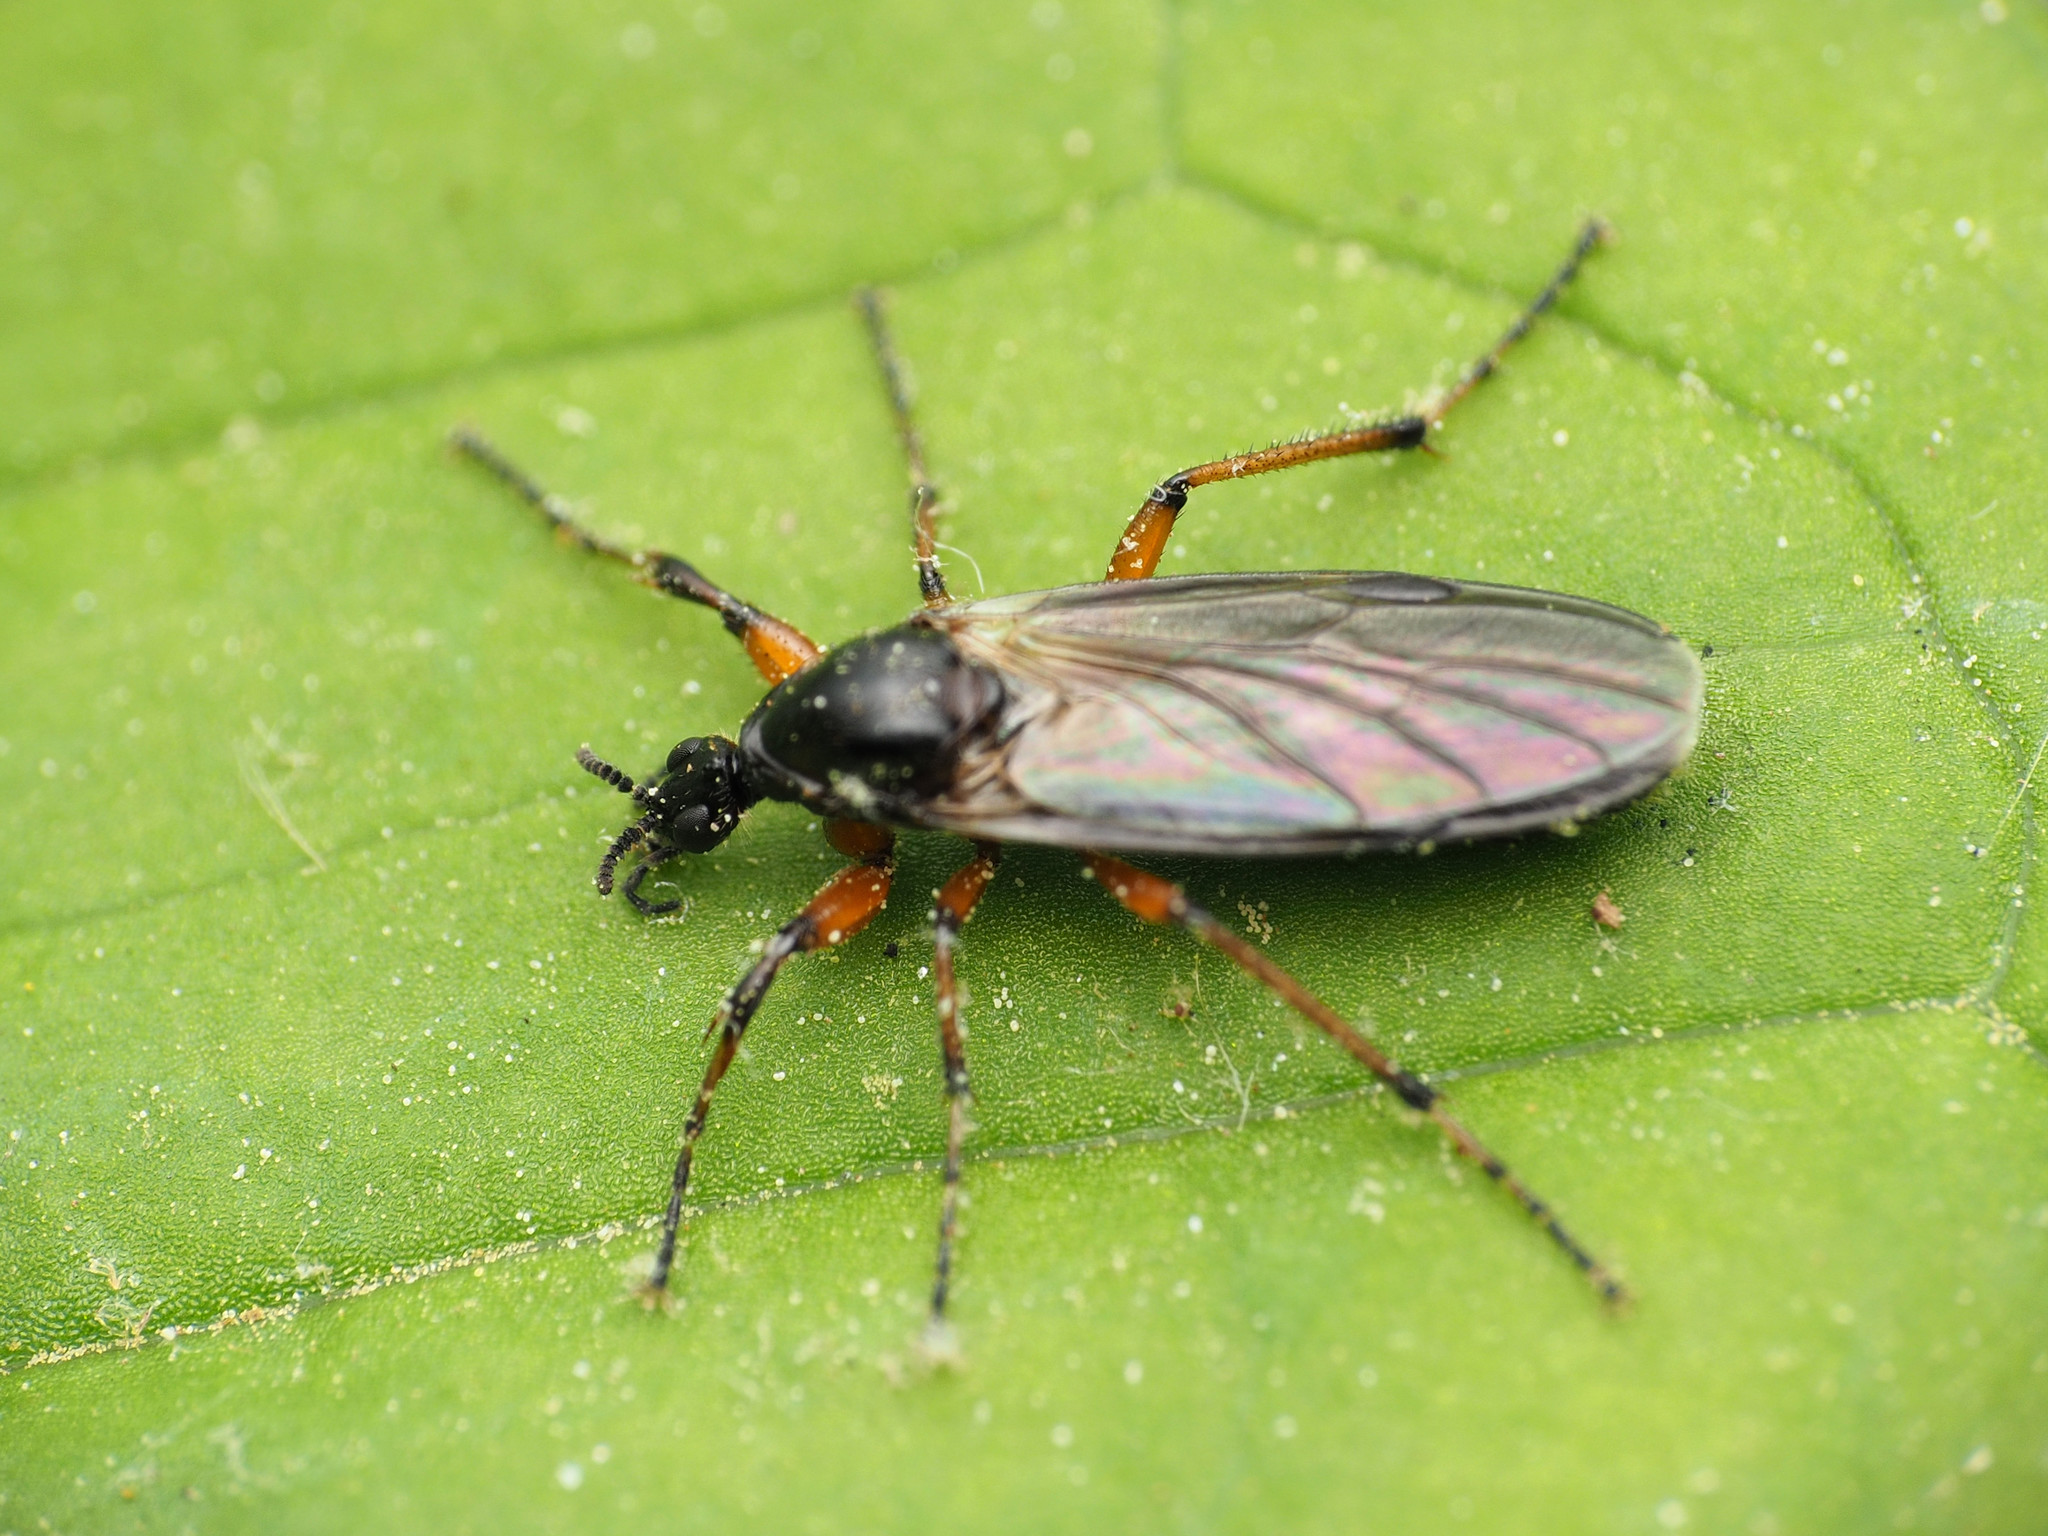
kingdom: Animalia
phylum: Arthropoda
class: Insecta
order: Diptera
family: Bibionidae
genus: Bibio
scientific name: Bibio articulatus
